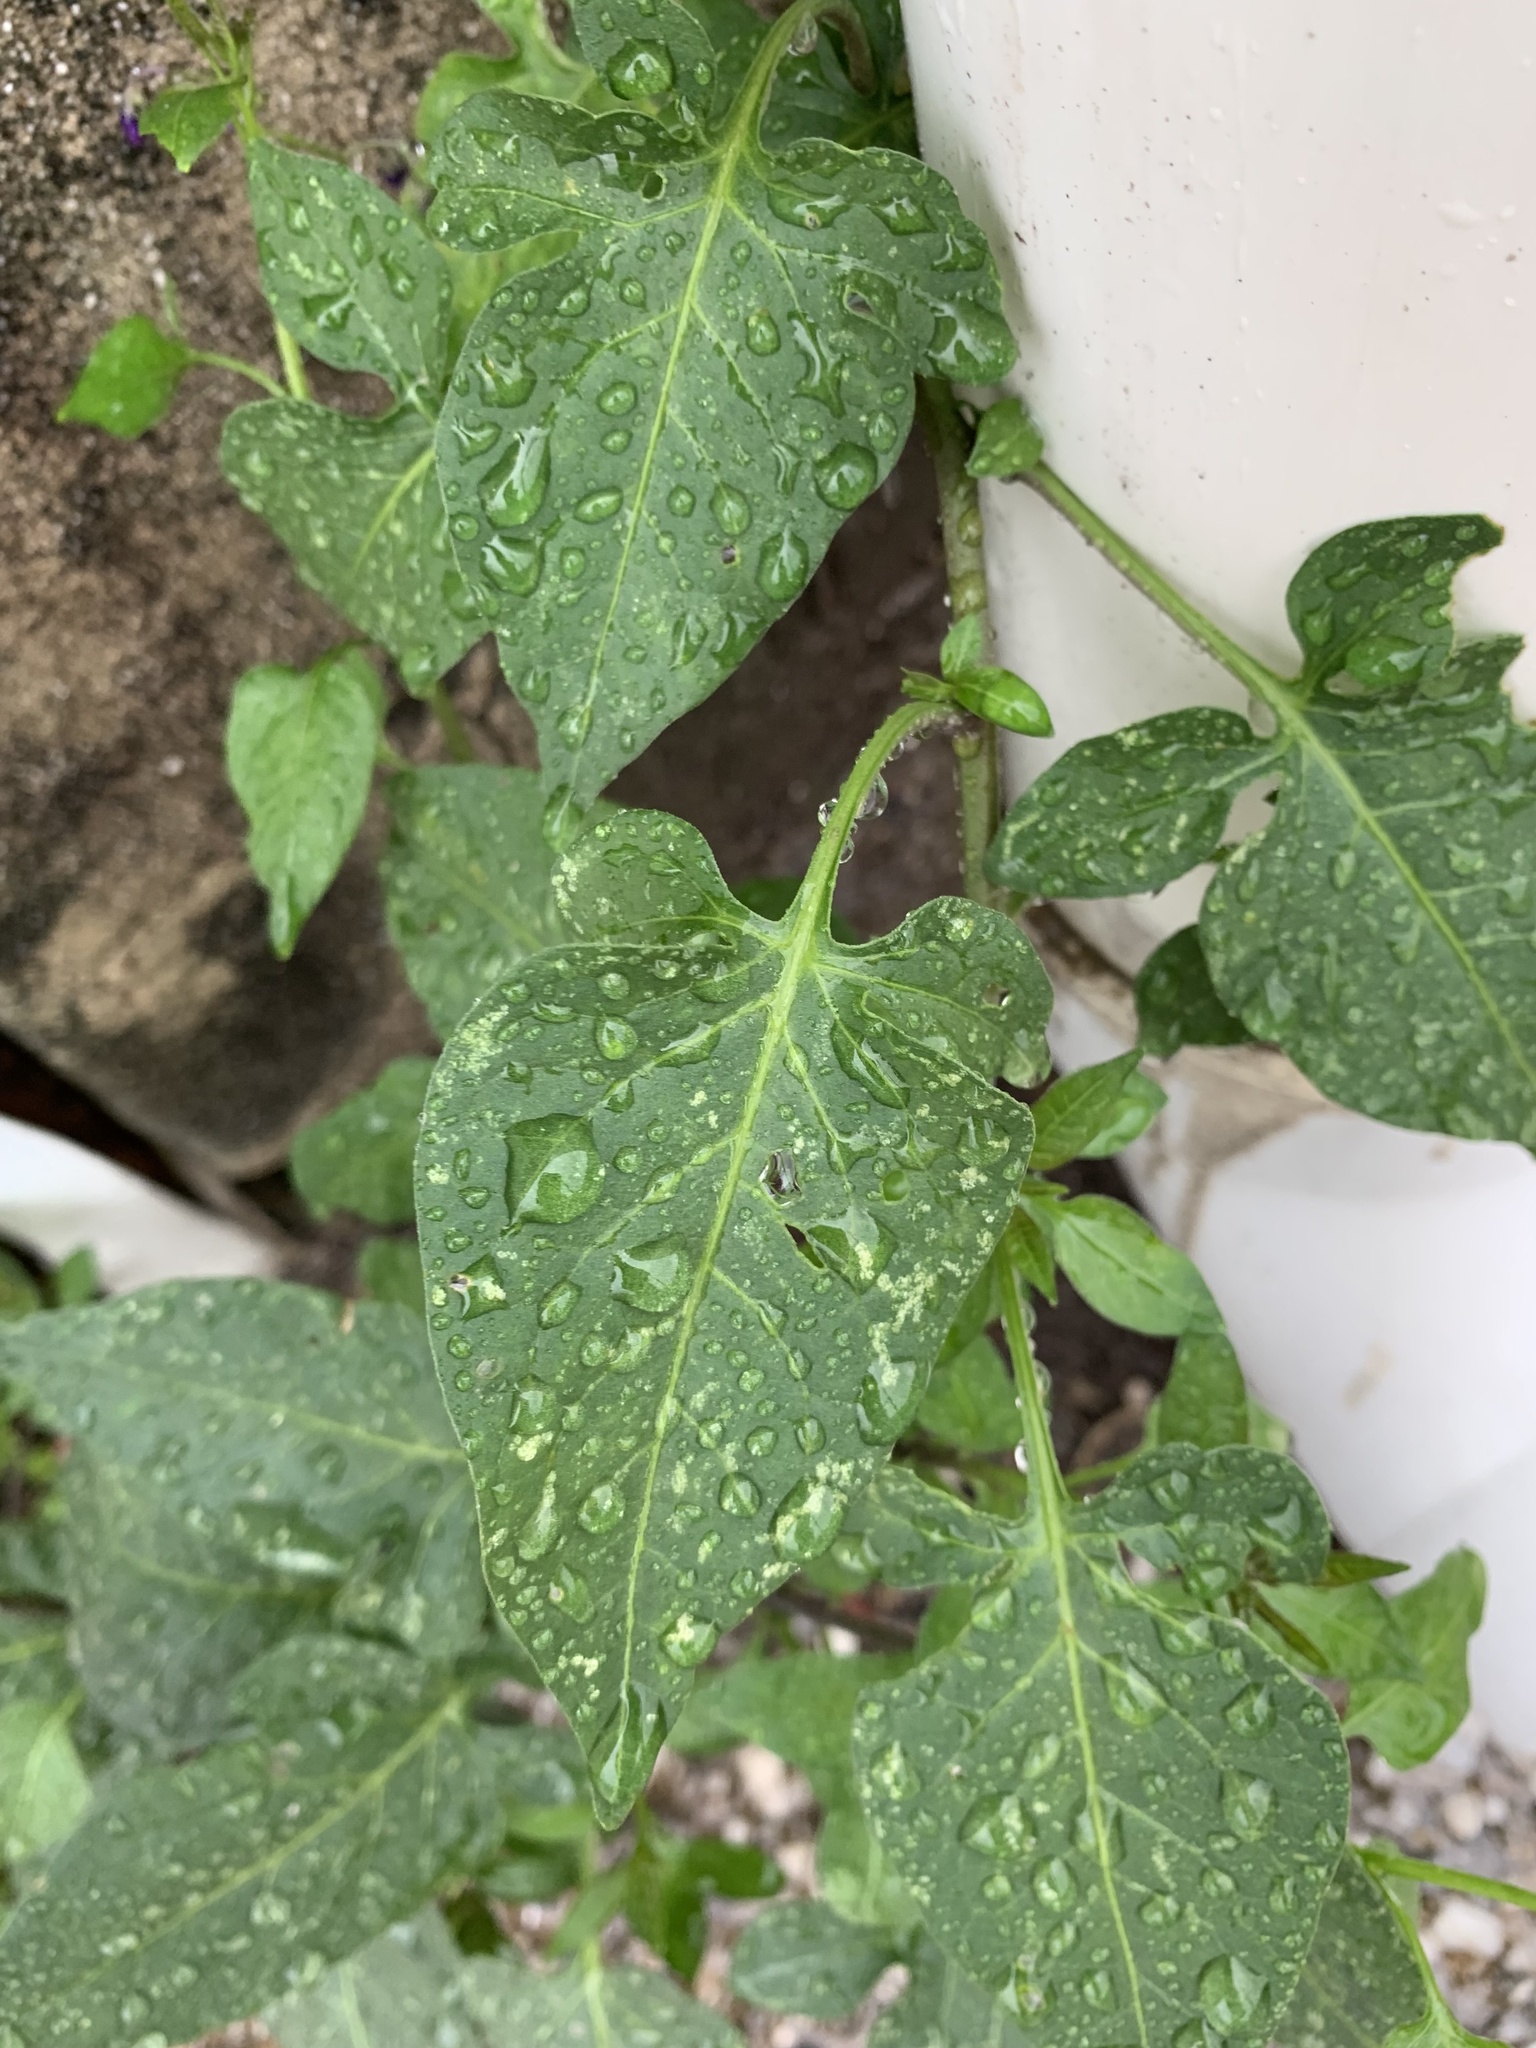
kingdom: Plantae
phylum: Tracheophyta
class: Magnoliopsida
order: Solanales
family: Solanaceae
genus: Solanum
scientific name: Solanum dulcamara
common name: Climbing nightshade
